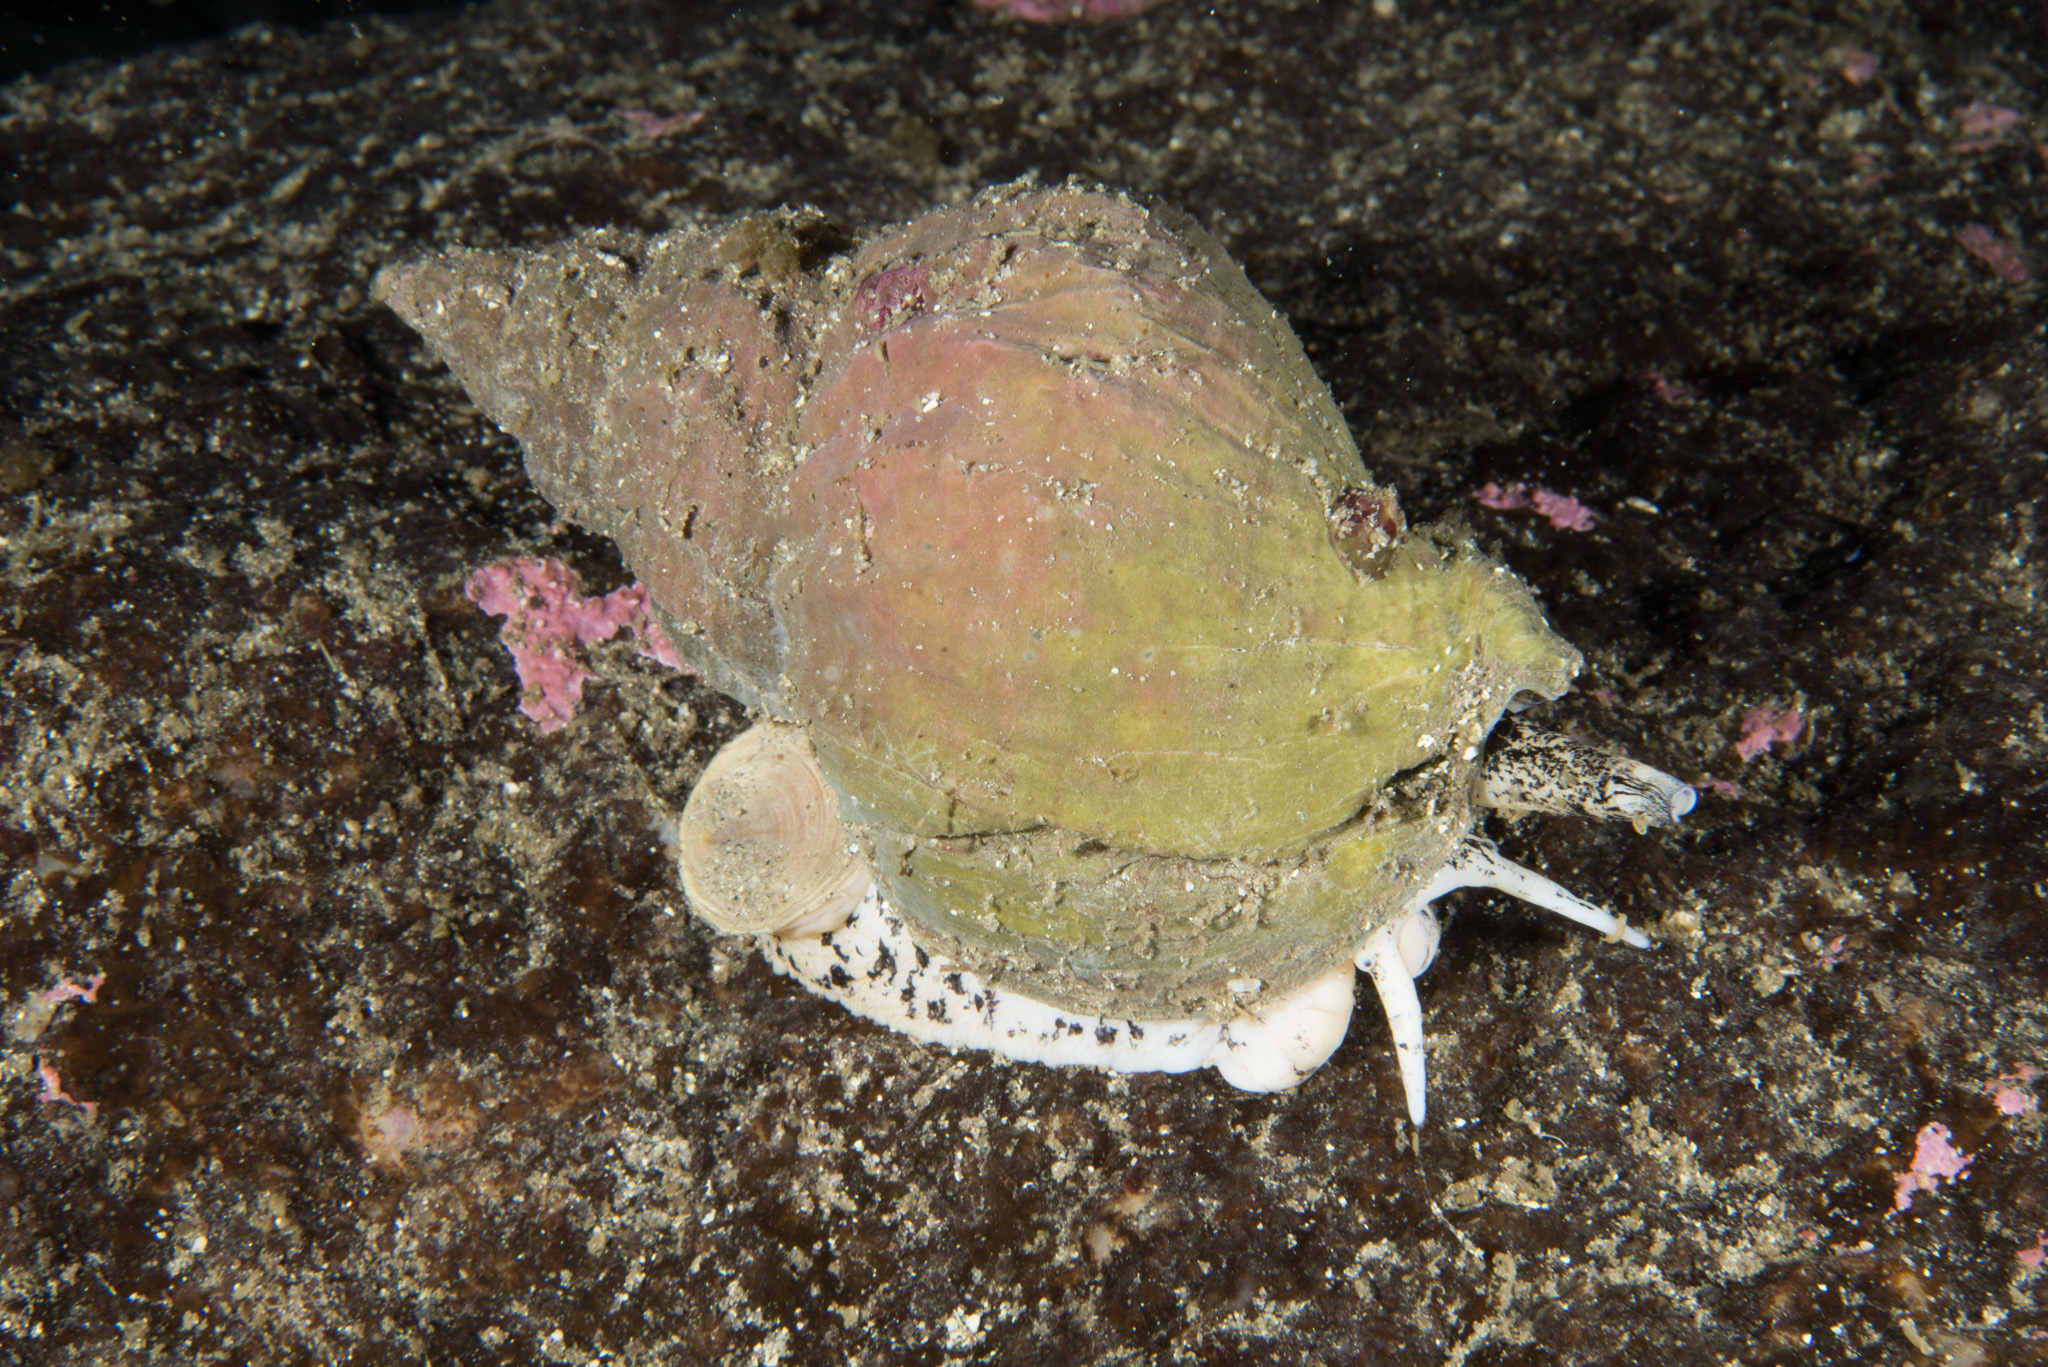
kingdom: Animalia
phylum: Mollusca
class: Gastropoda
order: Neogastropoda
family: Buccinidae
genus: Buccinum
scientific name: Buccinum undatum
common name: Common whelk
